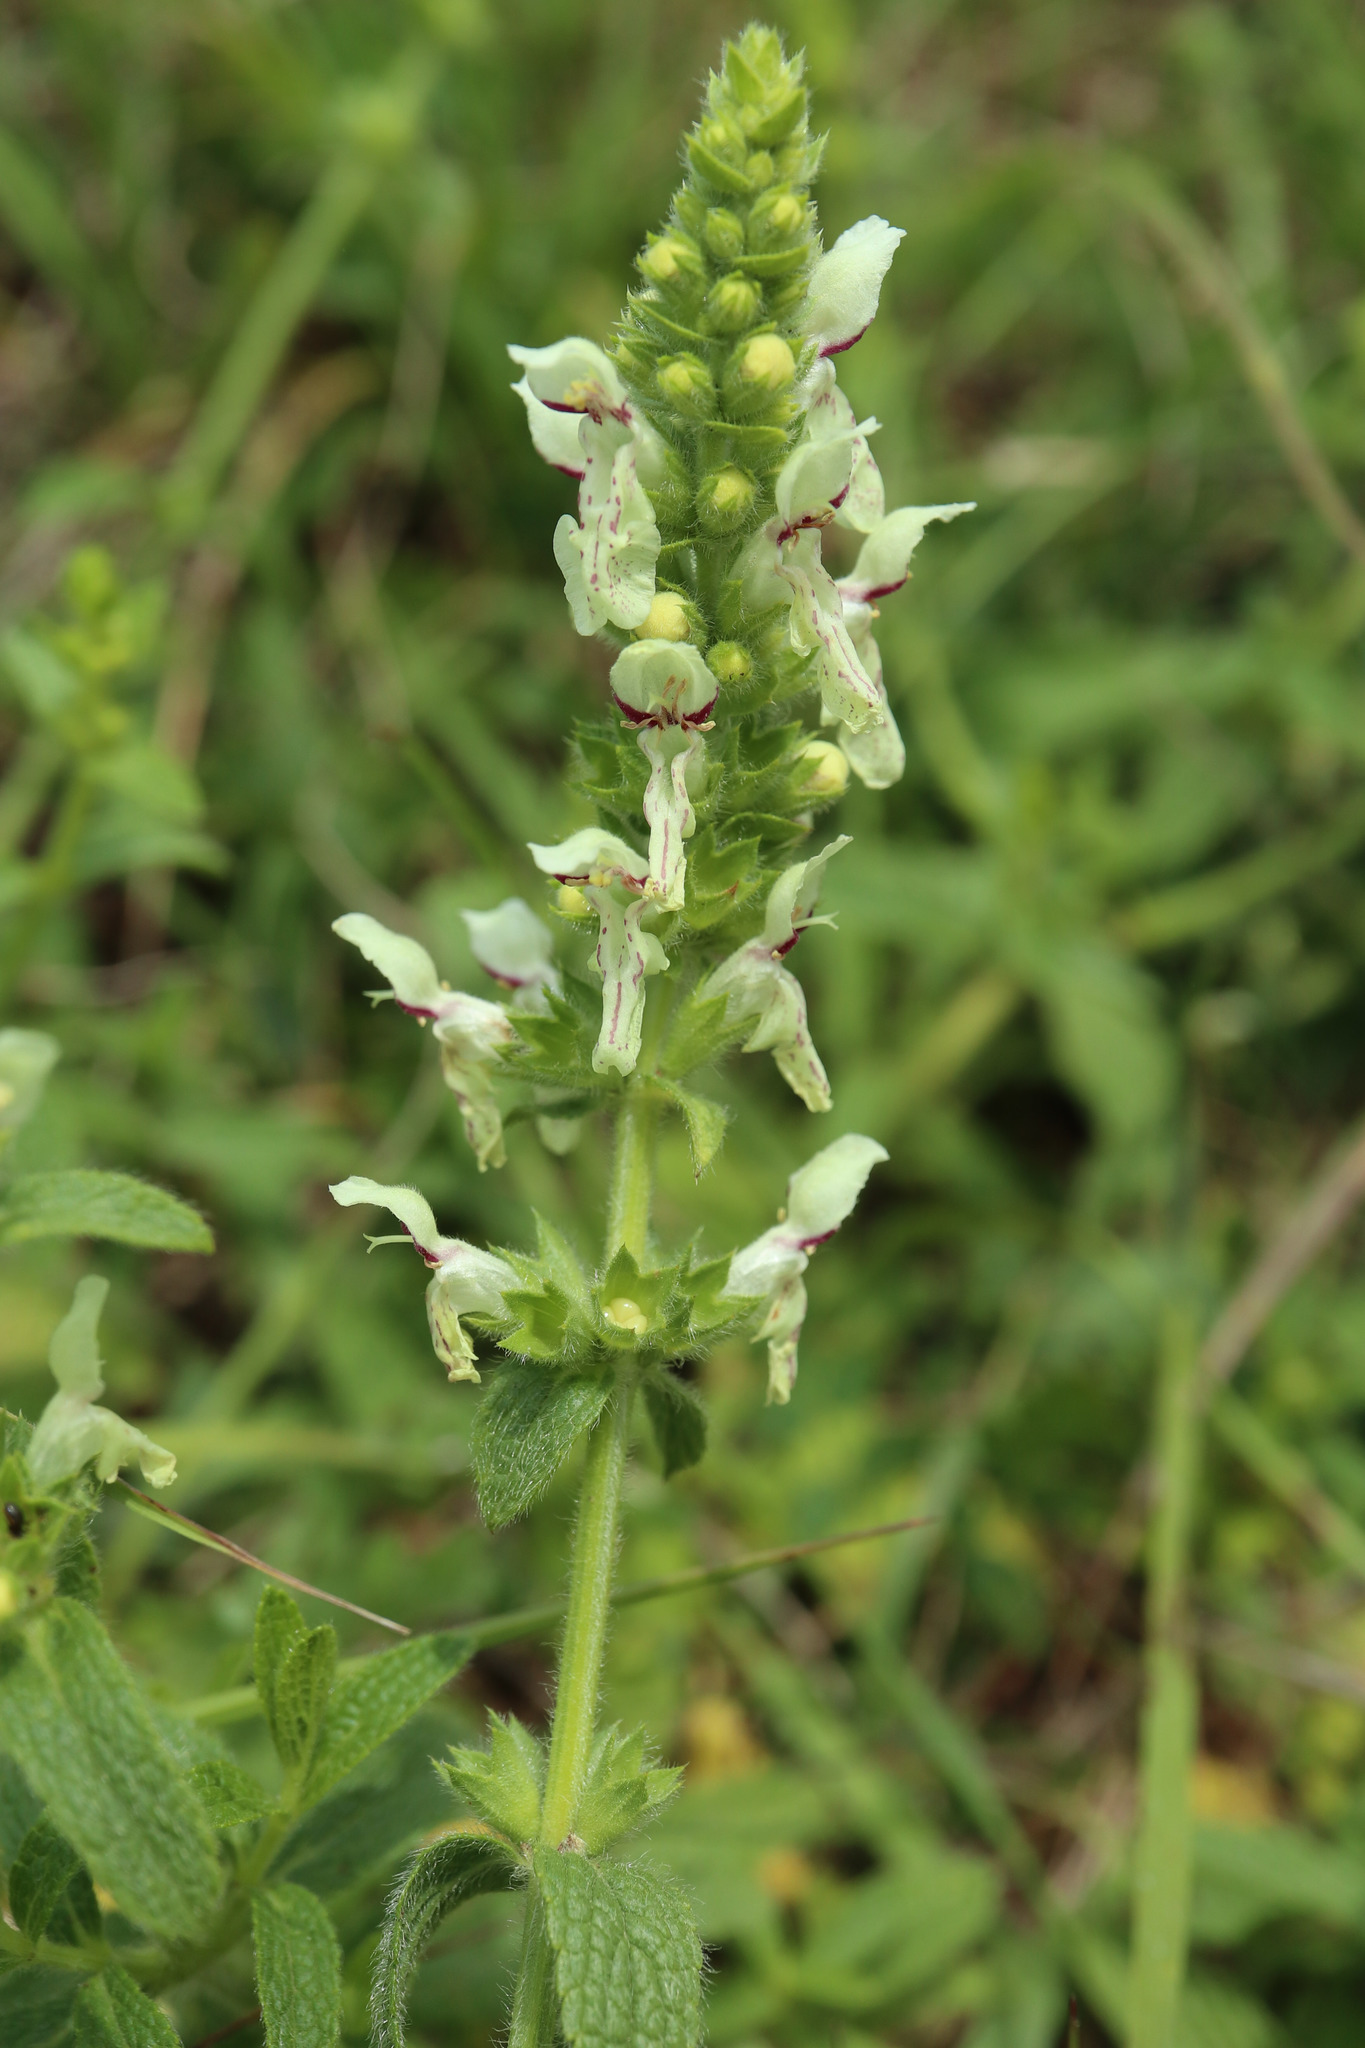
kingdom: Plantae
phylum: Tracheophyta
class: Magnoliopsida
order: Lamiales
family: Lamiaceae
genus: Stachys
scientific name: Stachys recta
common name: Perennial yellow-woundwort
